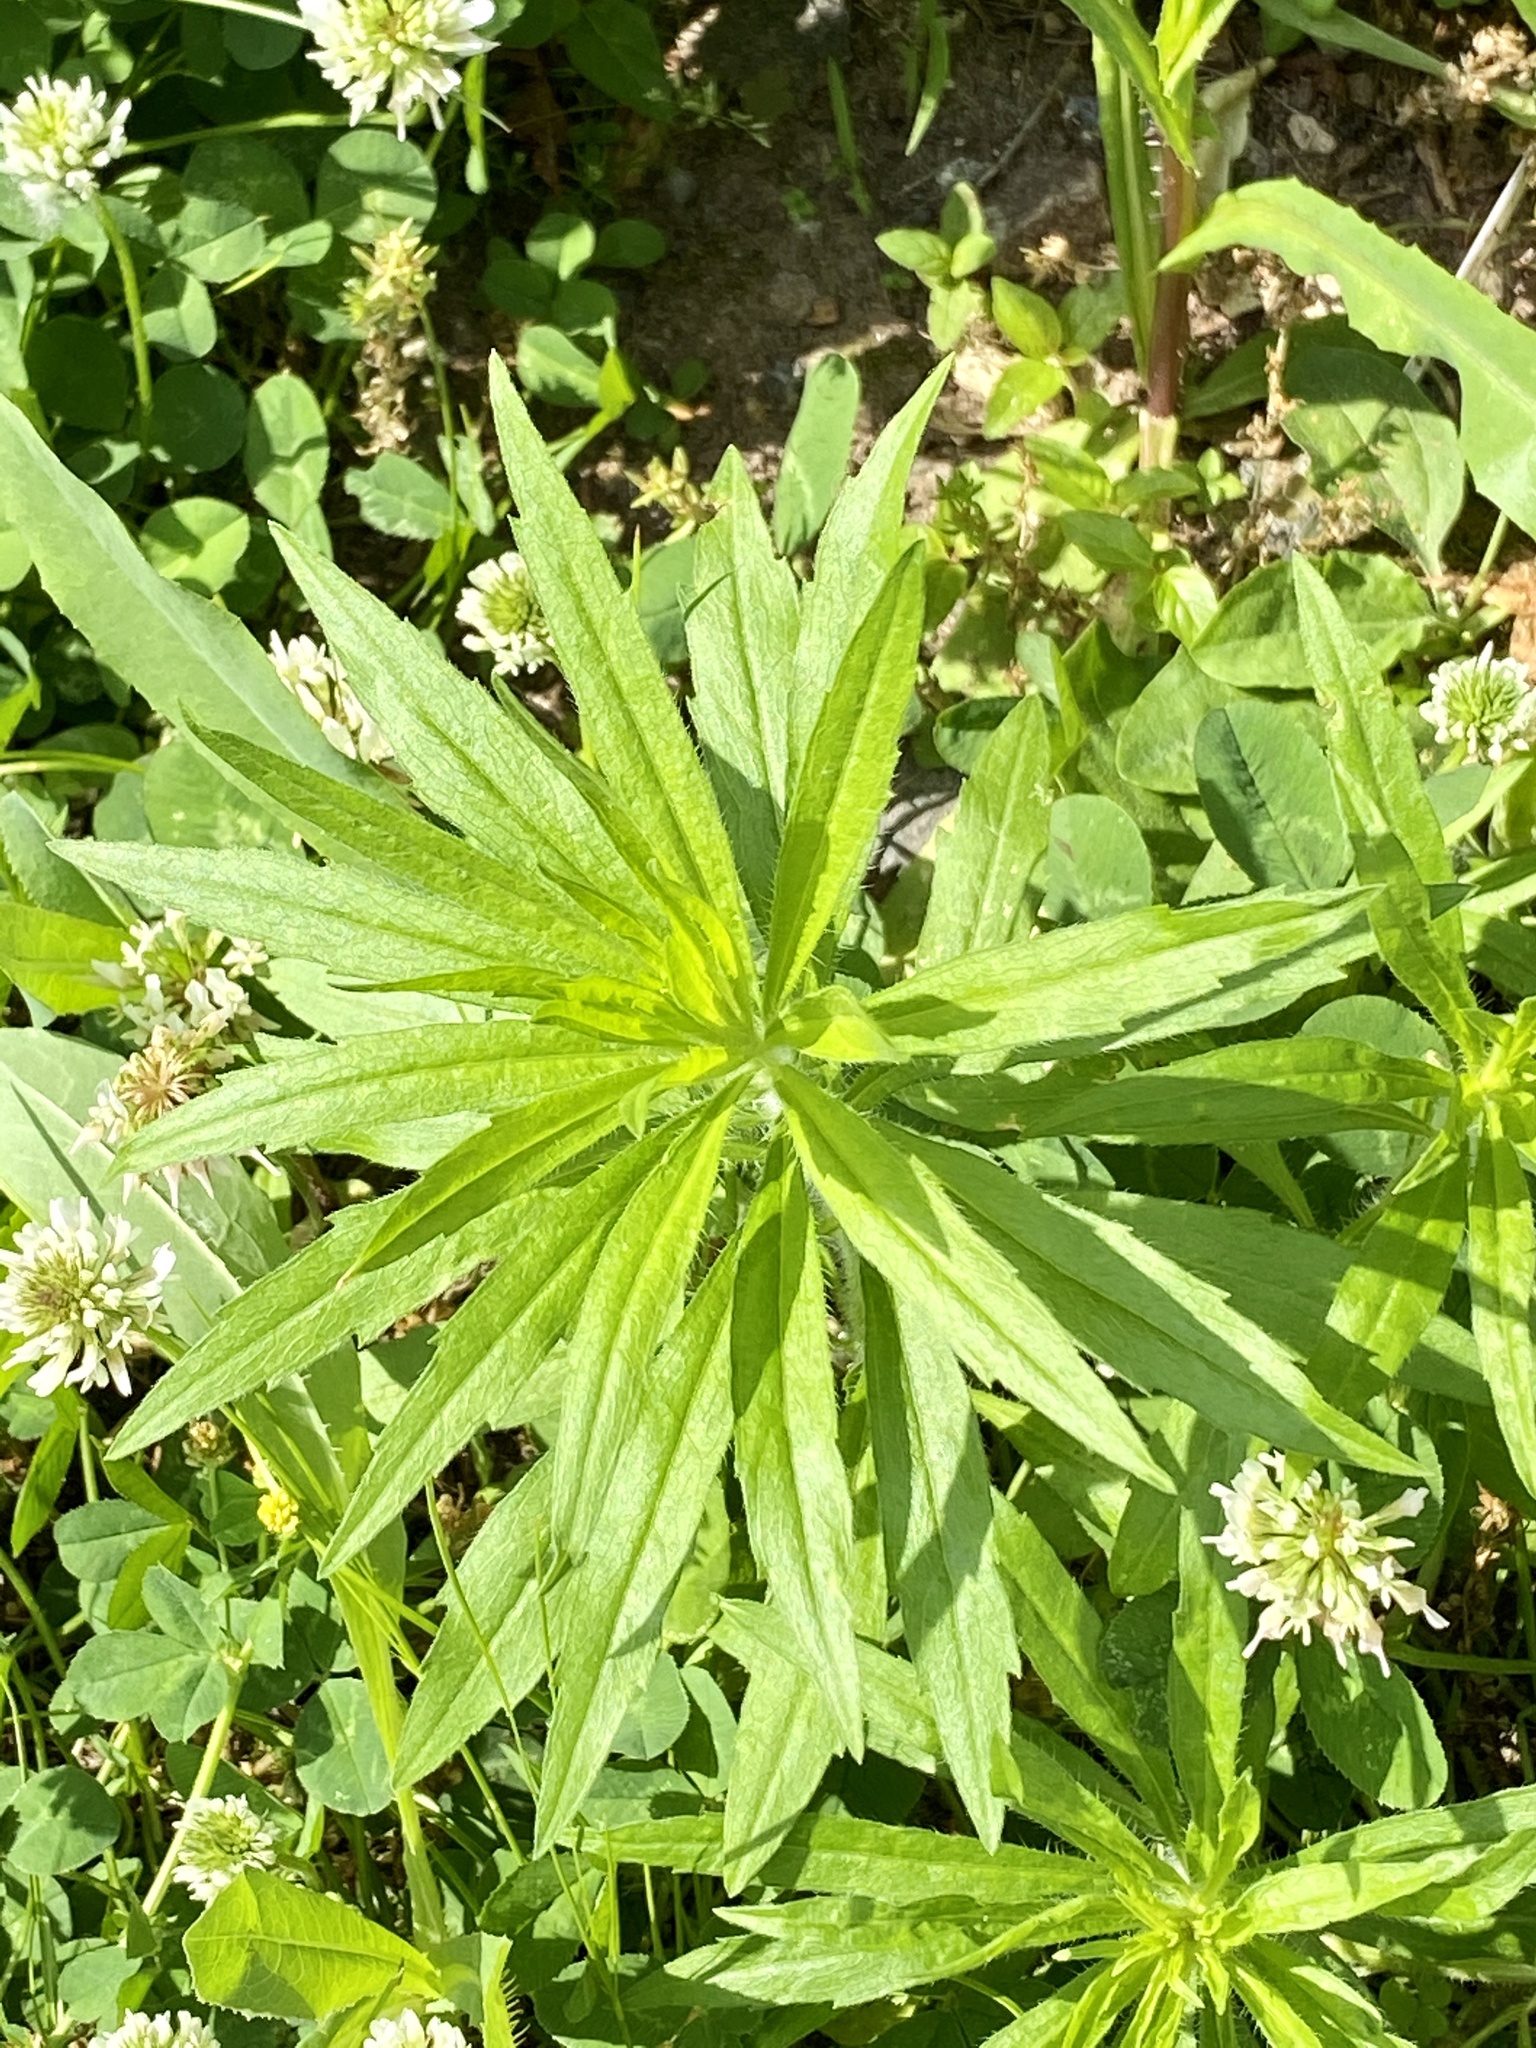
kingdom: Plantae
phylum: Tracheophyta
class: Magnoliopsida
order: Asterales
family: Asteraceae
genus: Erigeron
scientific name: Erigeron canadensis
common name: Canadian fleabane
